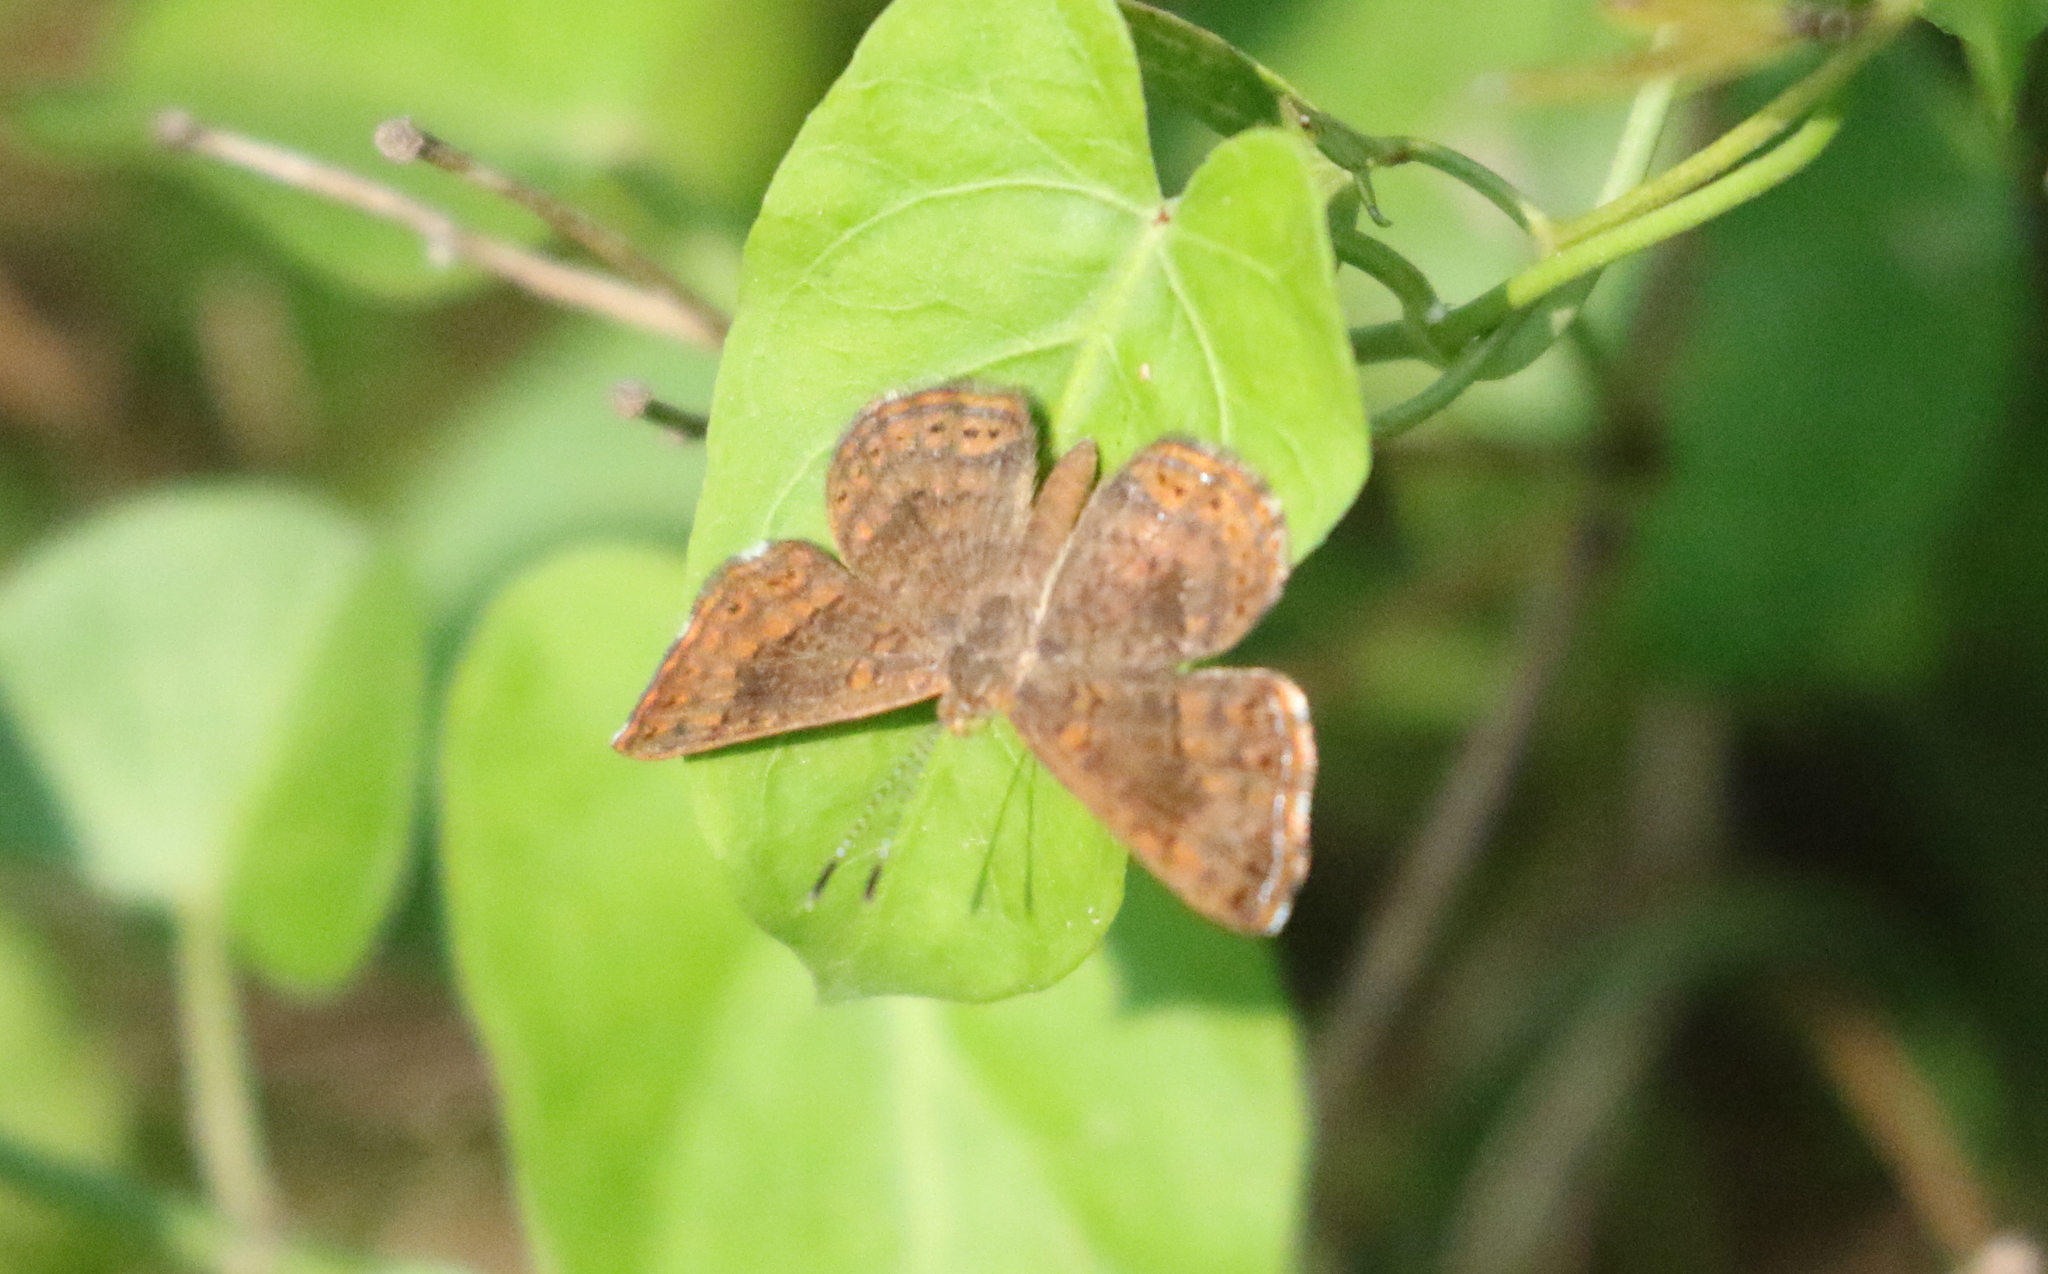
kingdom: Animalia
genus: Calephelis
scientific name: Calephelis nemesis
